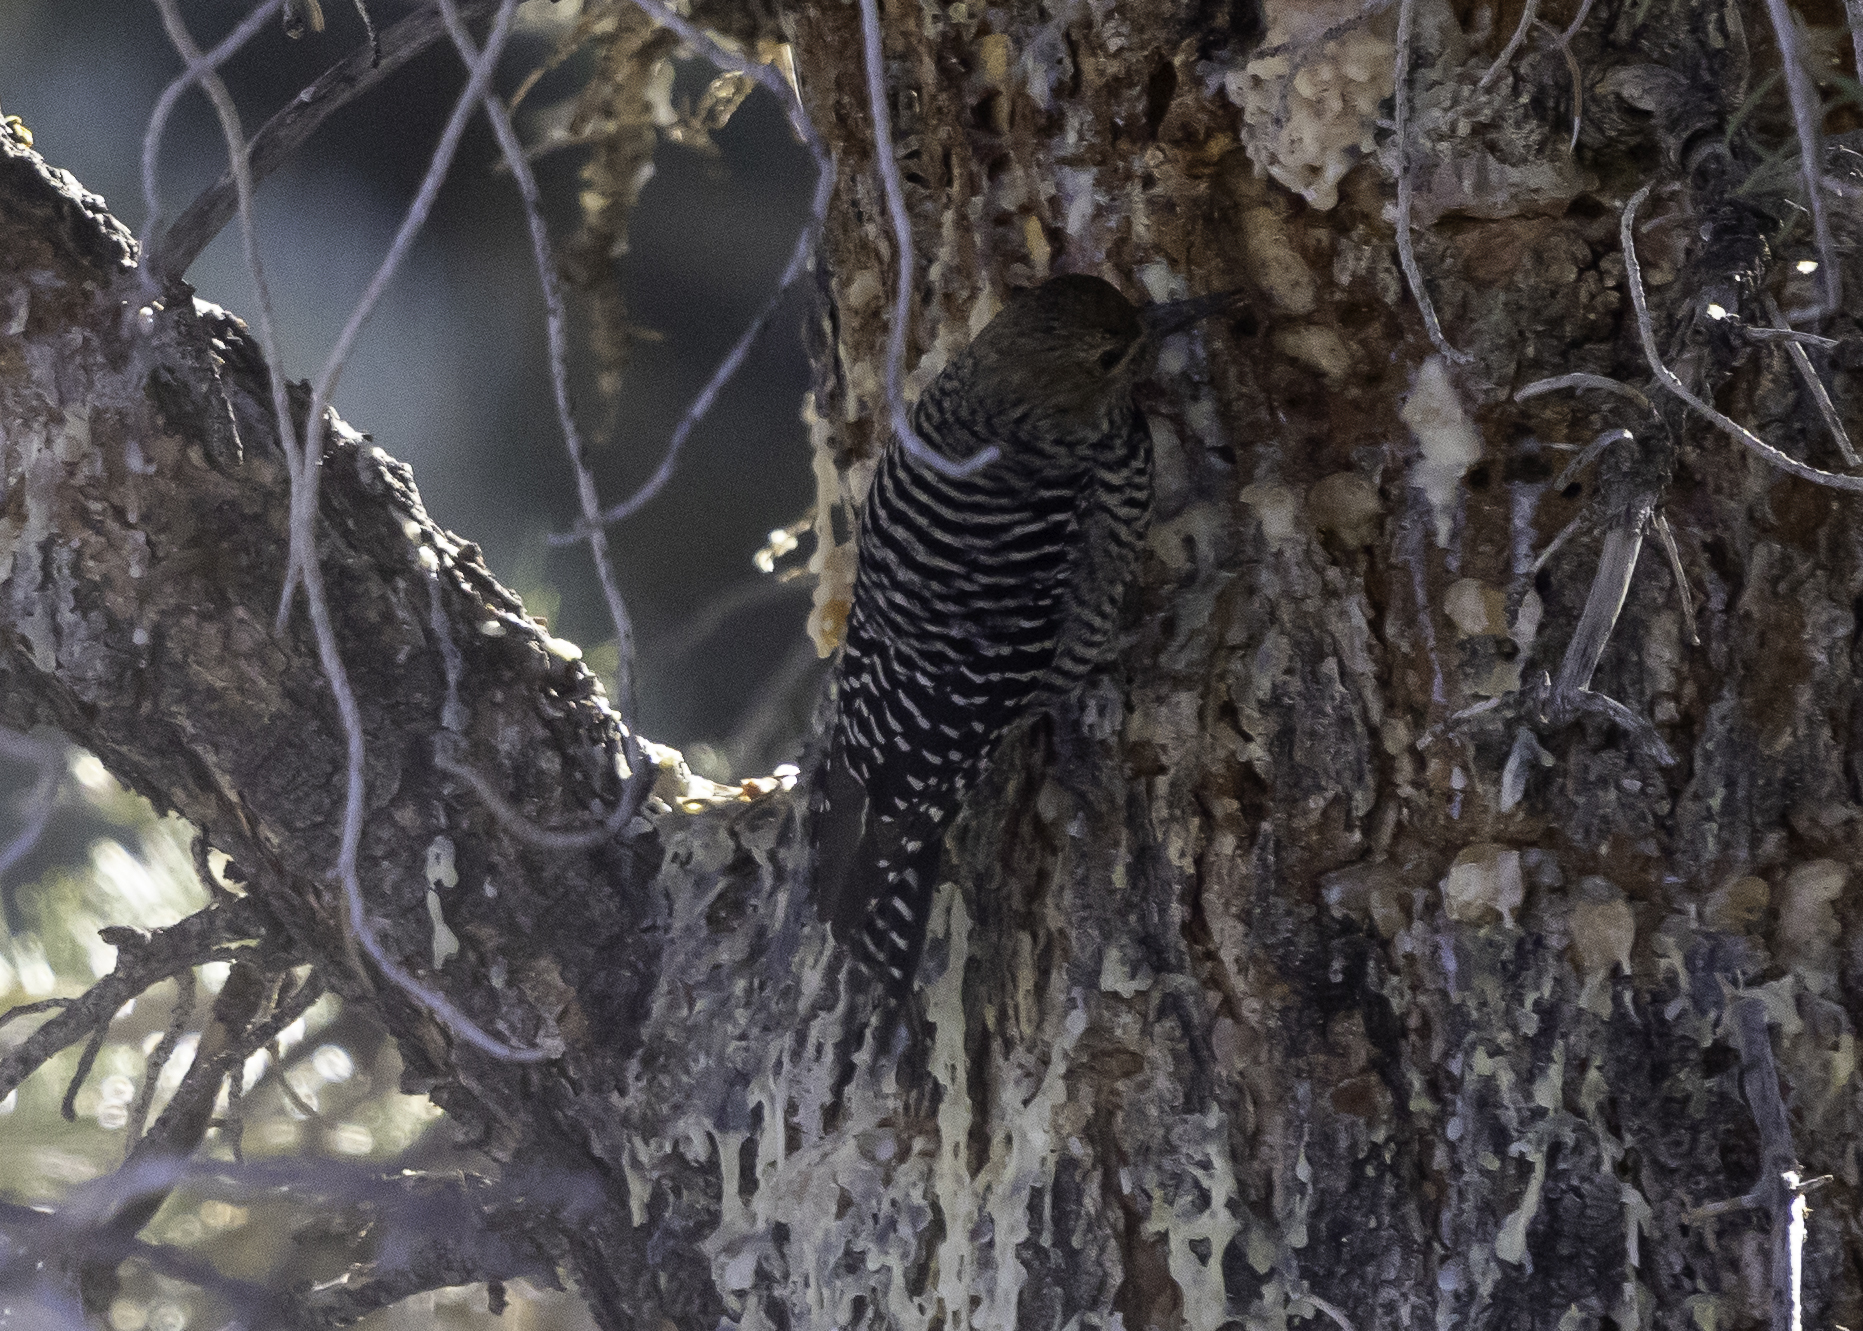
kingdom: Animalia
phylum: Chordata
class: Aves
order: Piciformes
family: Picidae
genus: Sphyrapicus
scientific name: Sphyrapicus thyroideus
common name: Williamson's sapsucker
